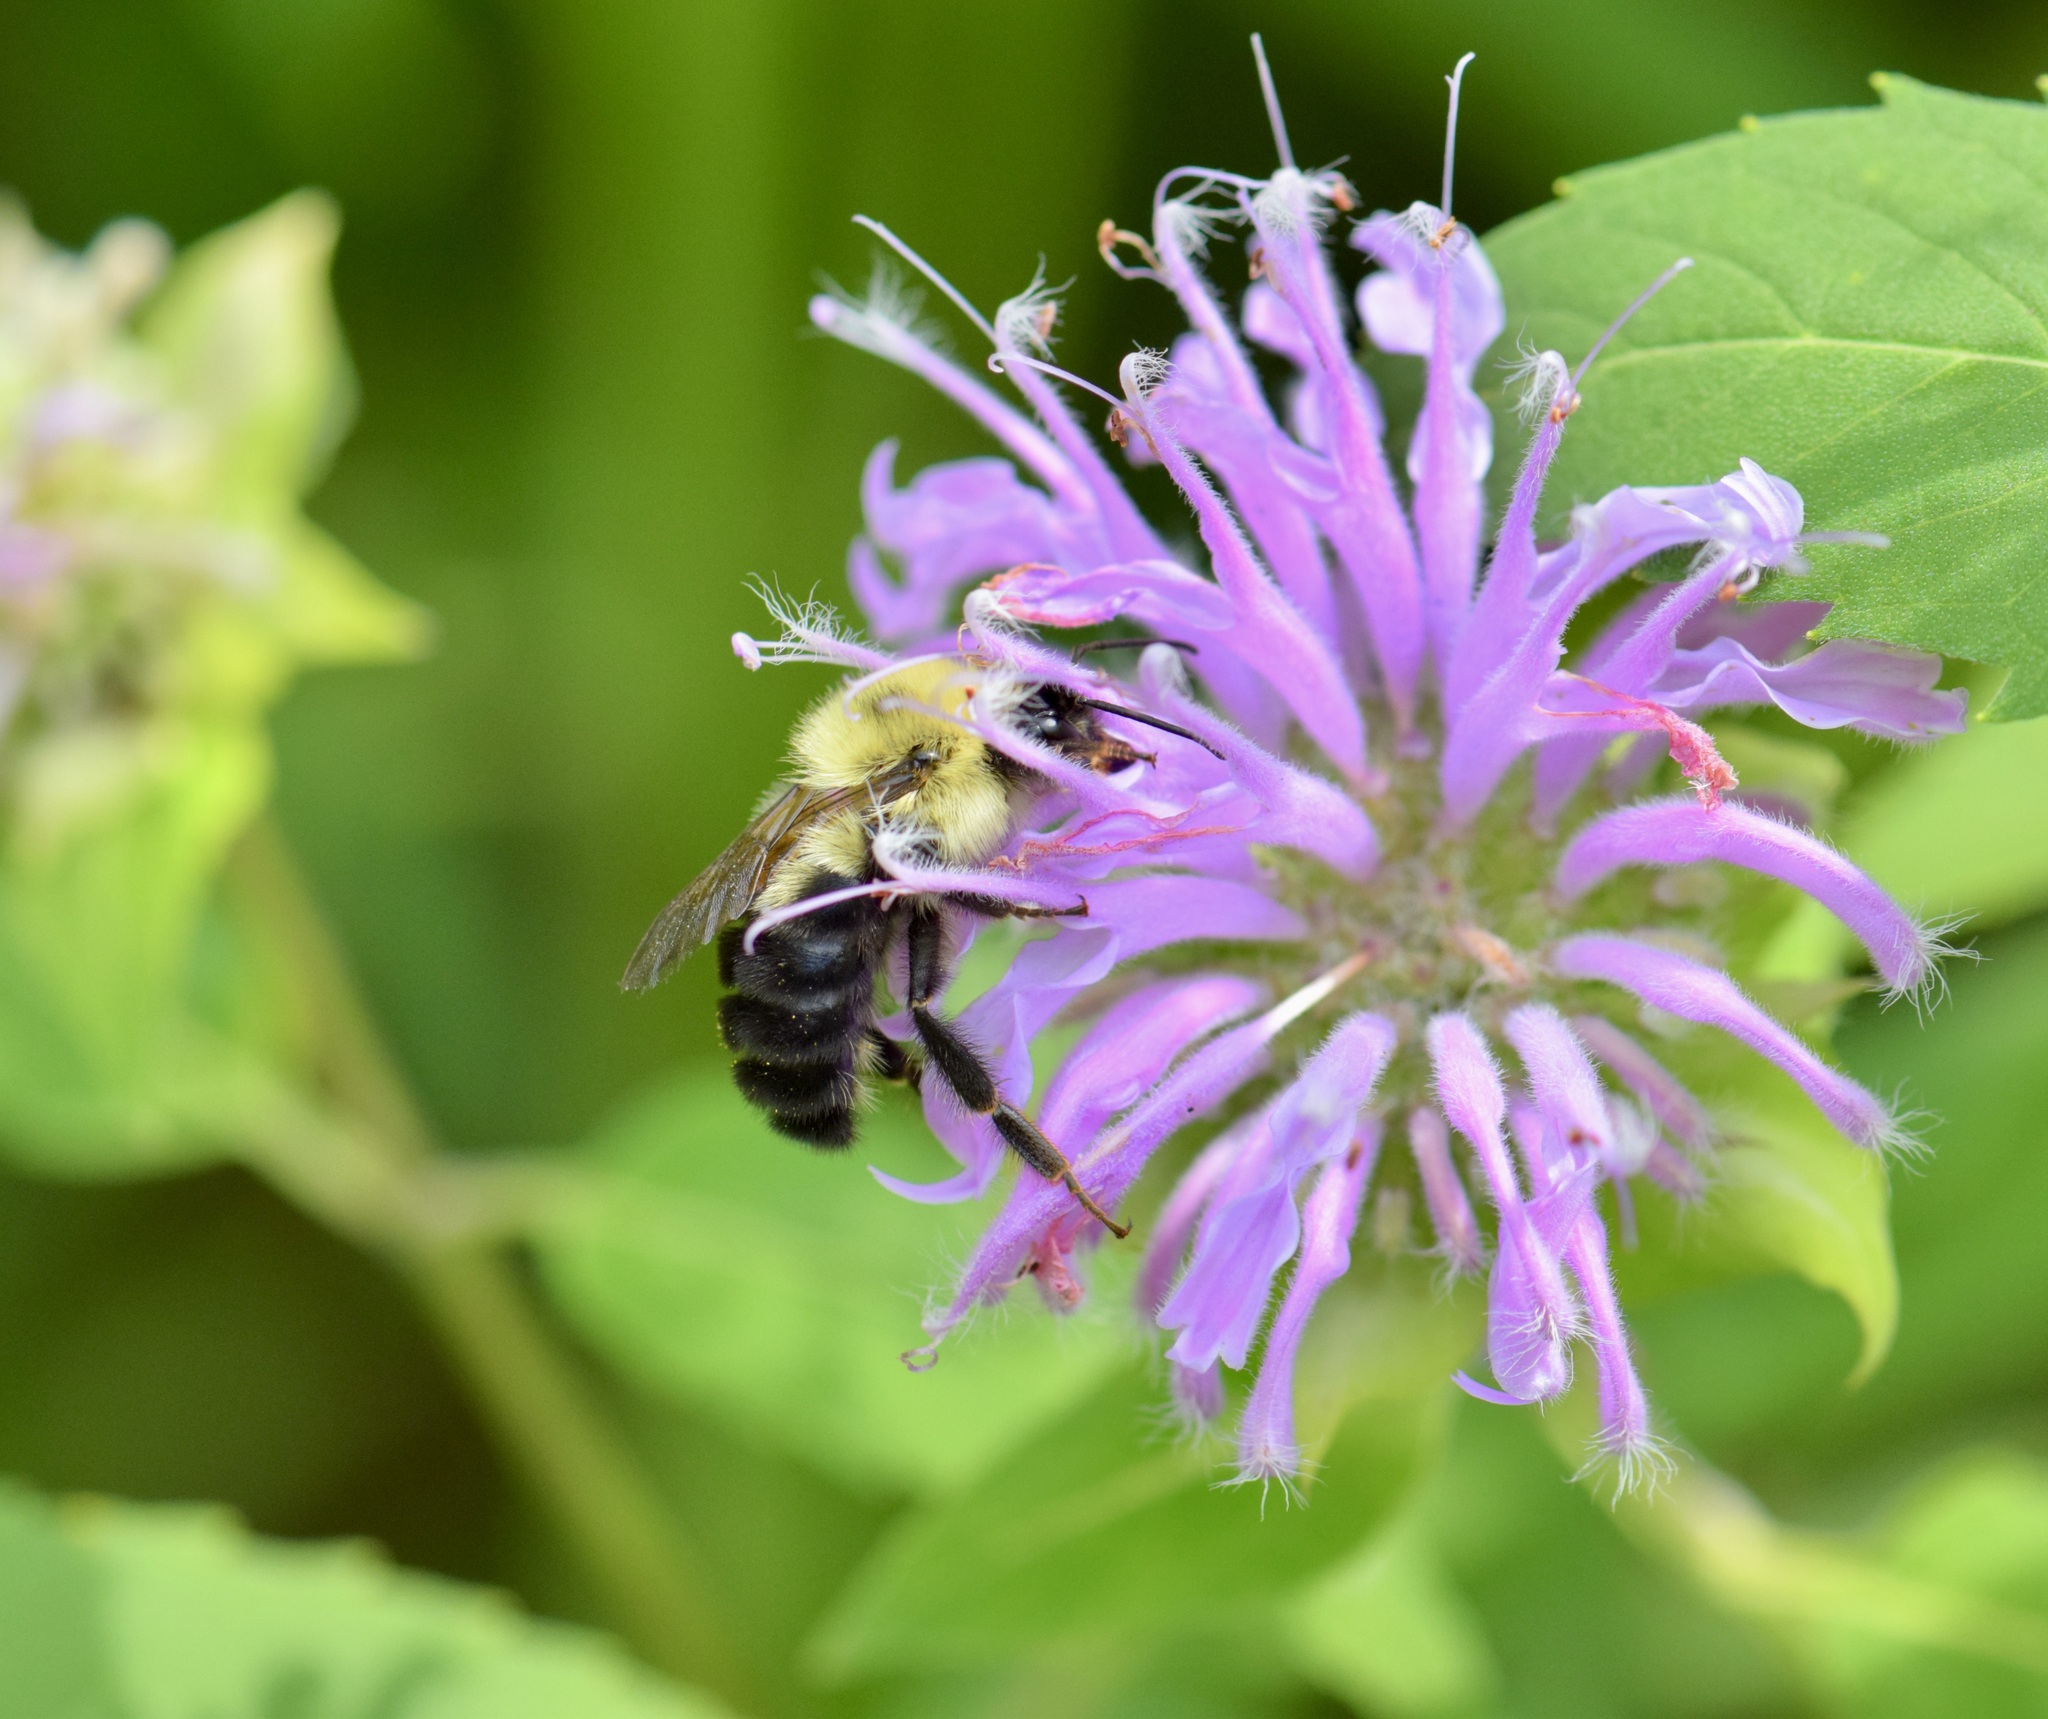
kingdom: Animalia
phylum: Arthropoda
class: Insecta
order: Hymenoptera
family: Apidae
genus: Bombus
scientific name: Bombus bimaculatus
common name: Two-spotted bumble bee
